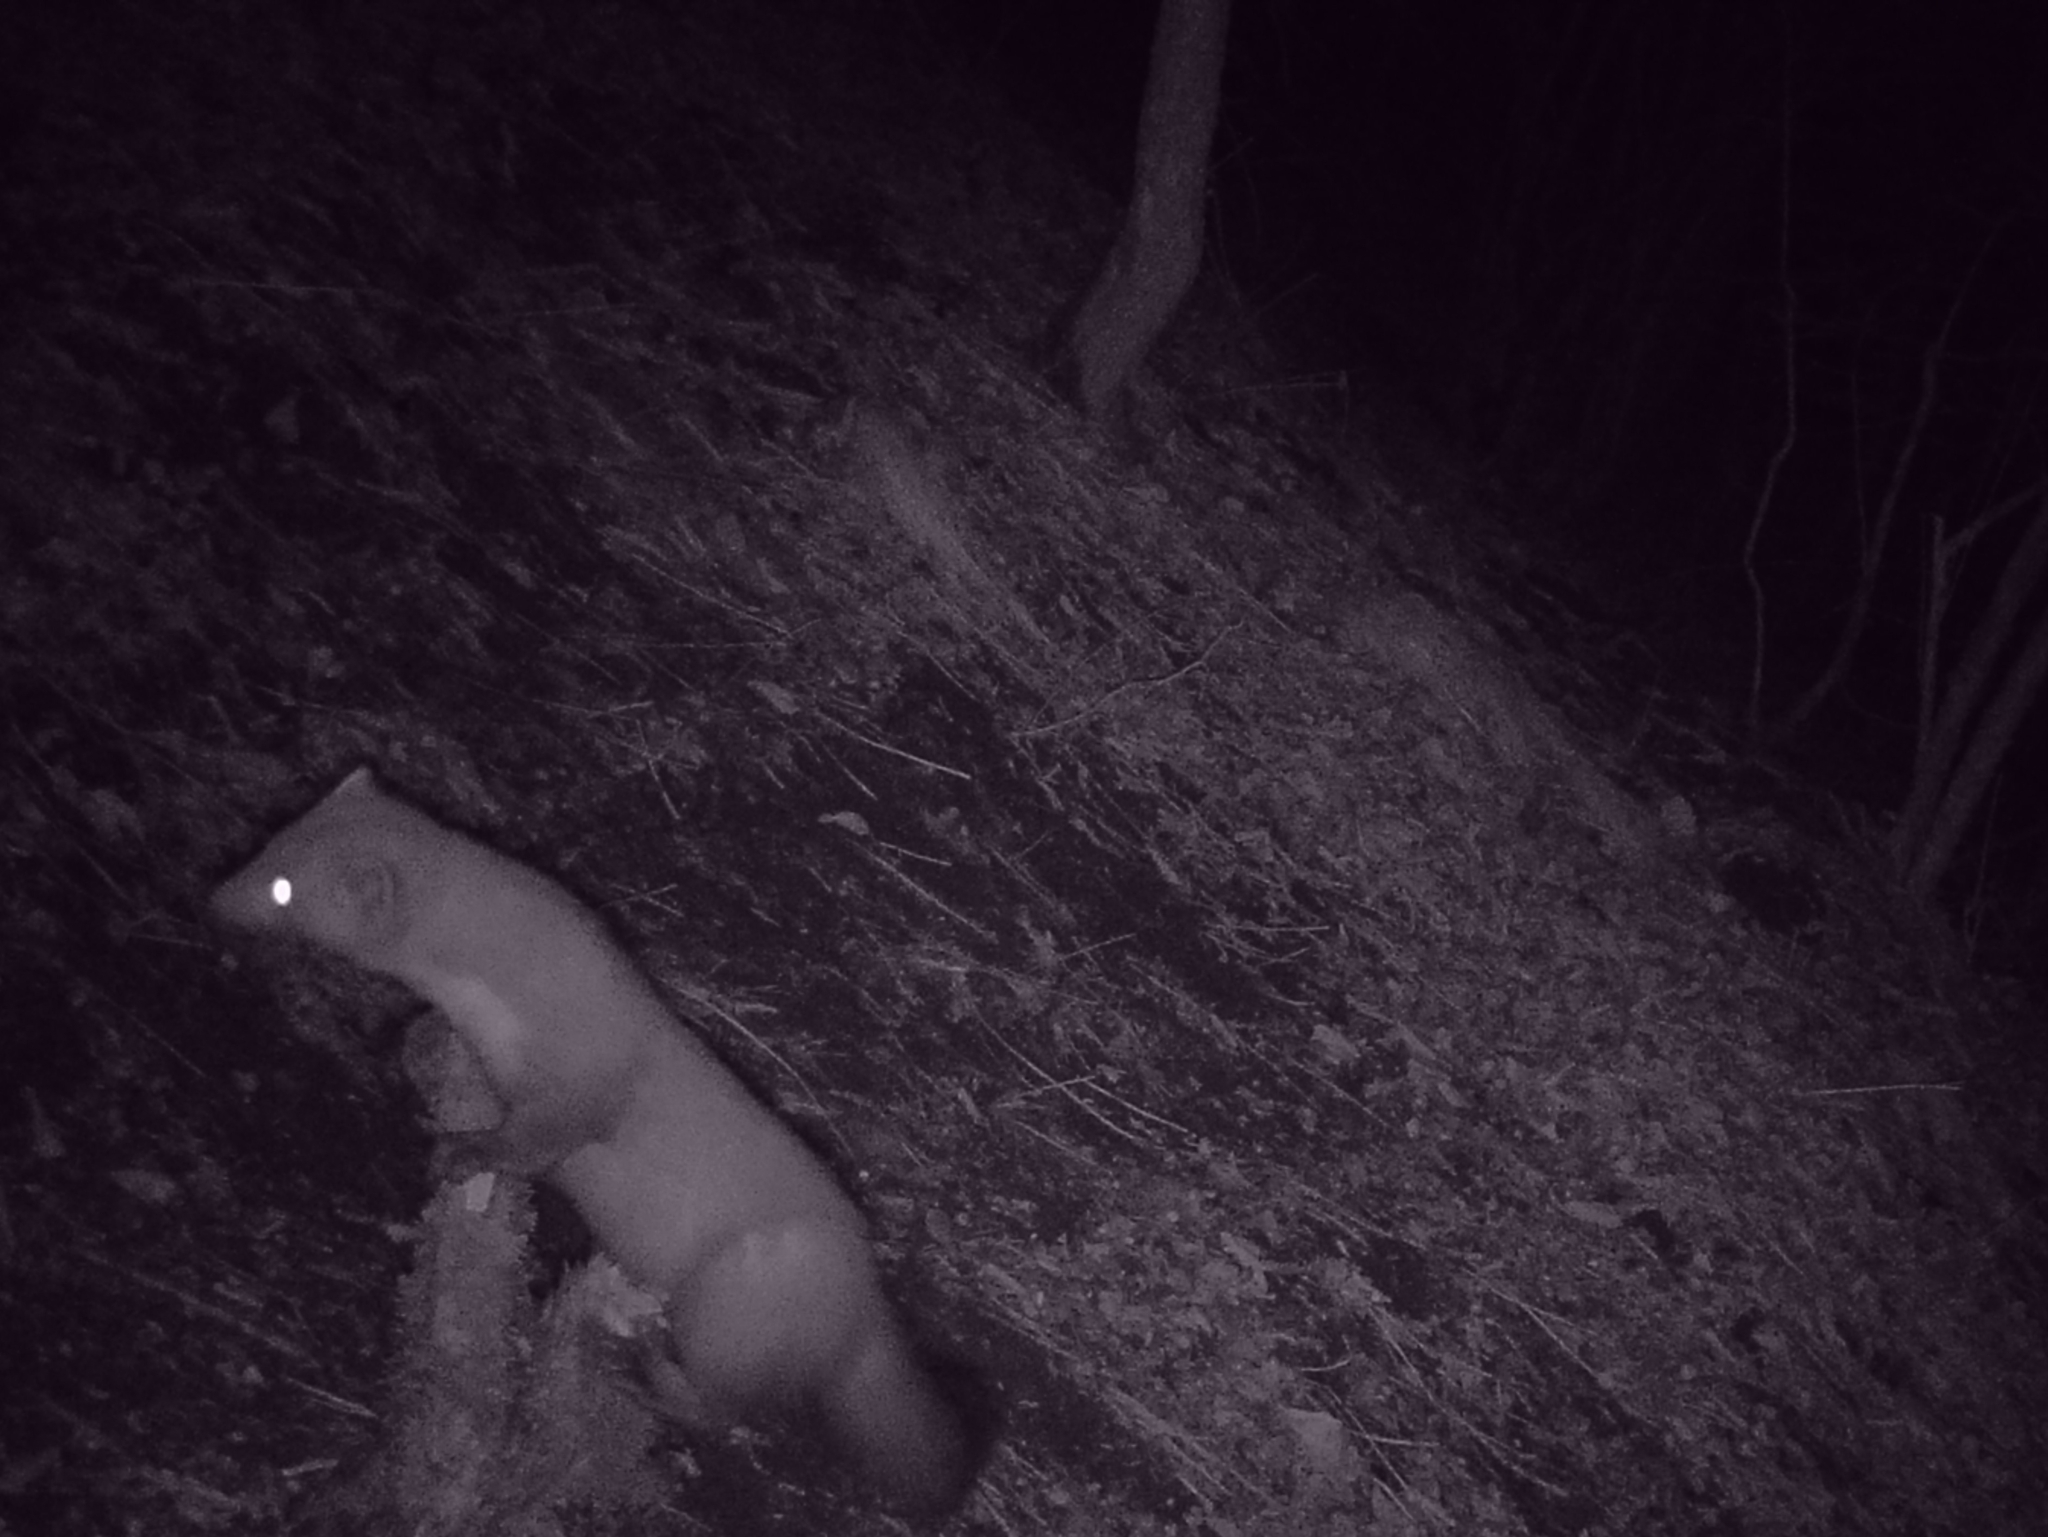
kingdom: Animalia
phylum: Chordata
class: Mammalia
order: Carnivora
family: Mustelidae
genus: Martes
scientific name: Martes foina
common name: Beech marten
